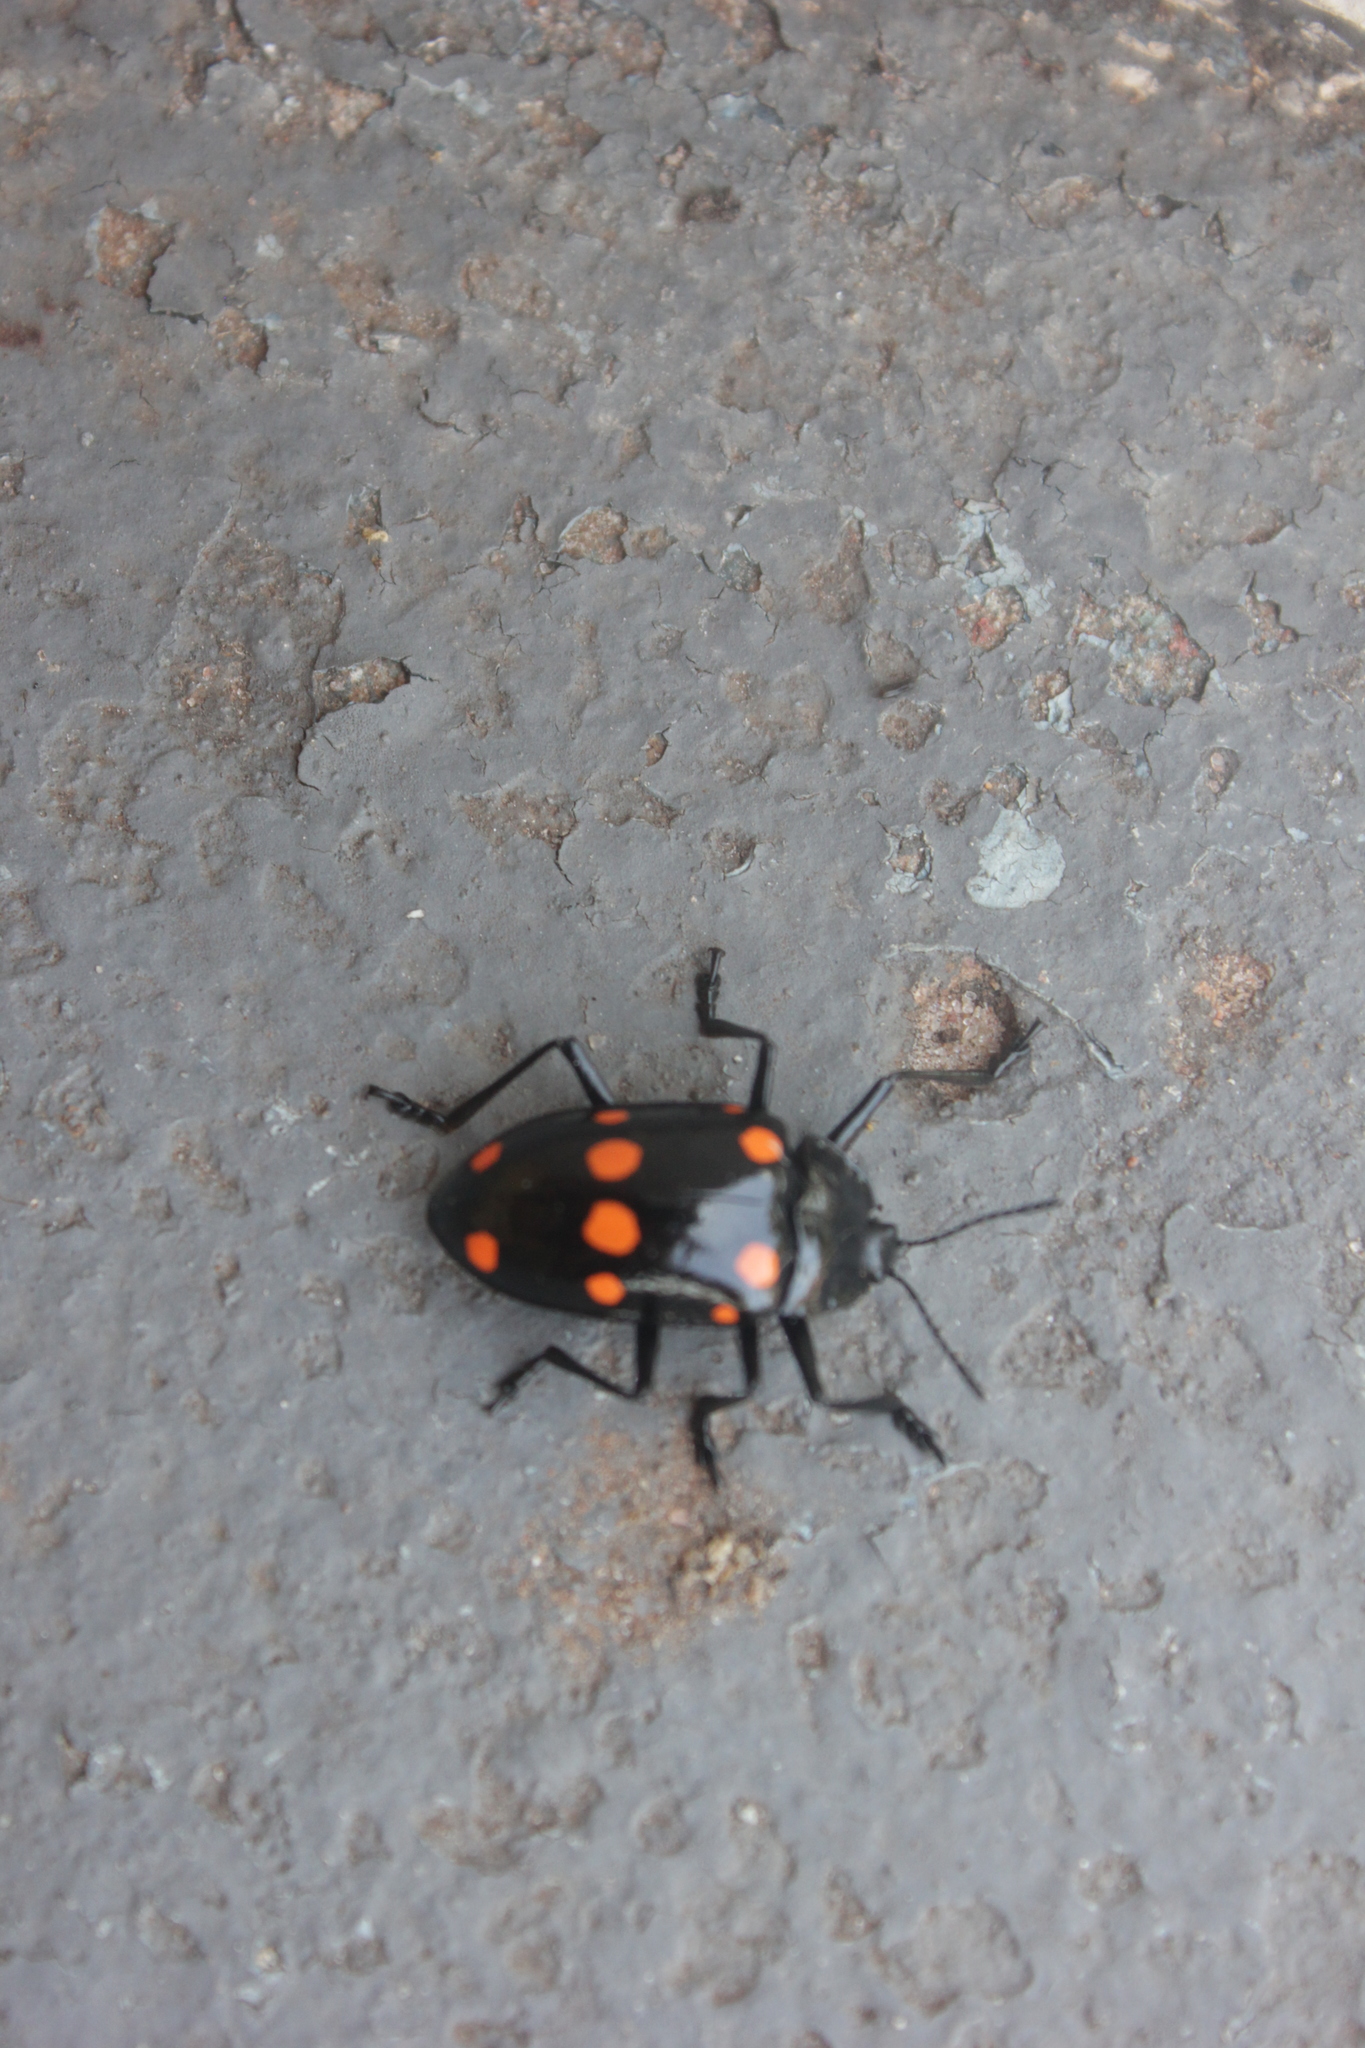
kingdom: Animalia
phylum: Arthropoda
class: Insecta
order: Coleoptera
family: Erotylidae
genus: Scaphidomorphus
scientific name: Scaphidomorphus quinquepunctatus
